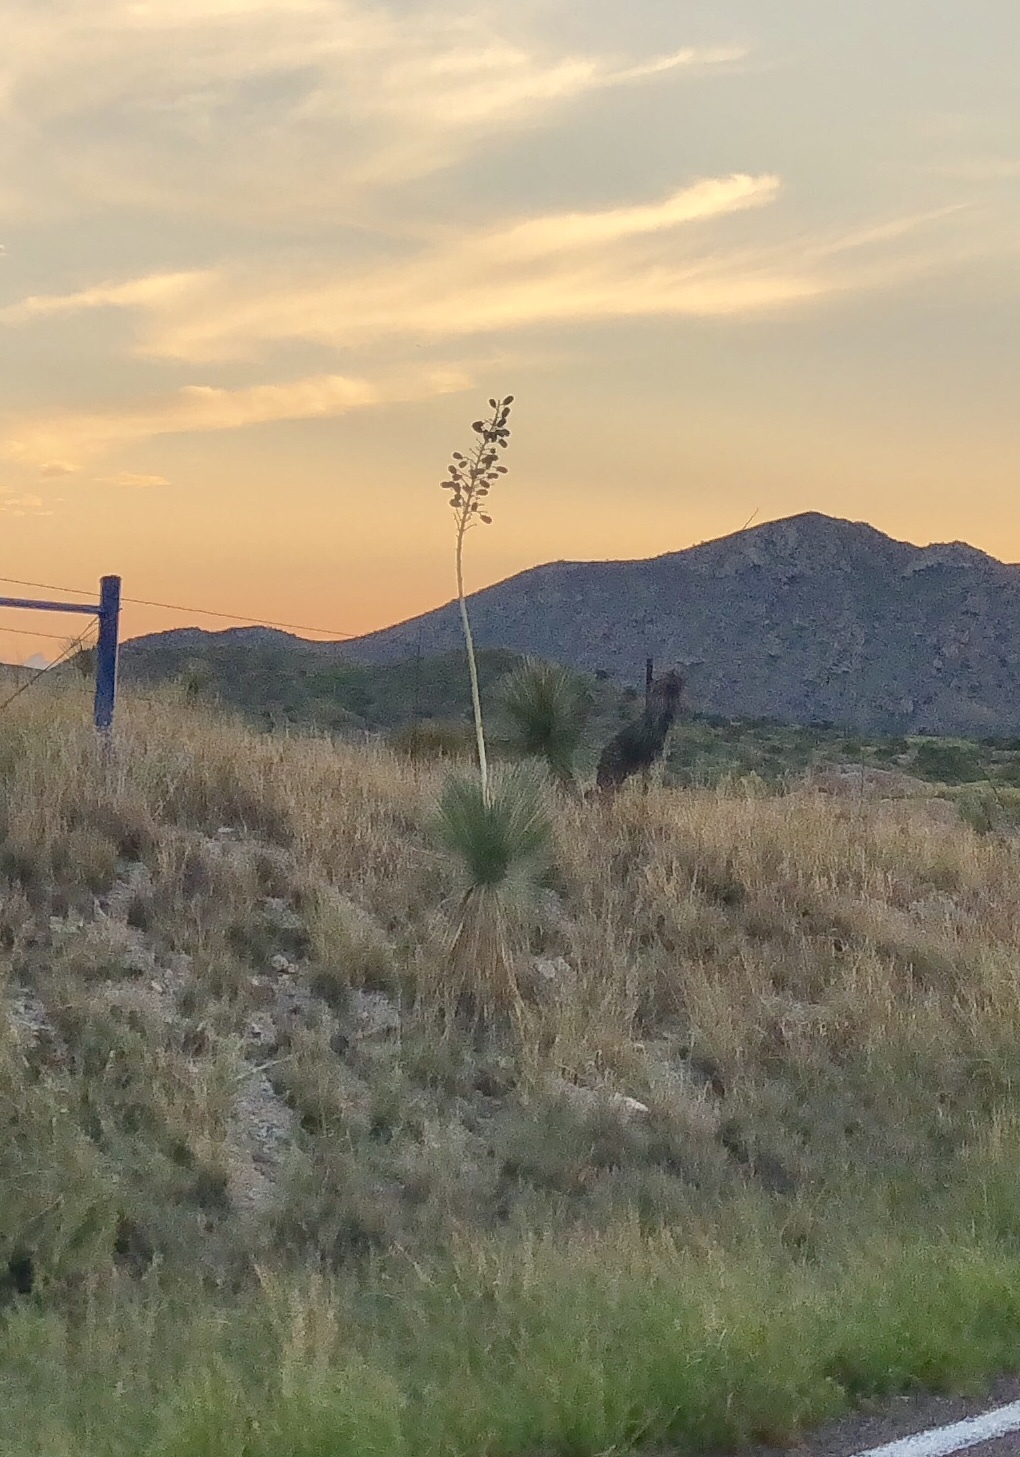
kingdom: Plantae
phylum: Tracheophyta
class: Liliopsida
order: Asparagales
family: Asparagaceae
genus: Yucca
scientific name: Yucca elata
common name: Palmella
